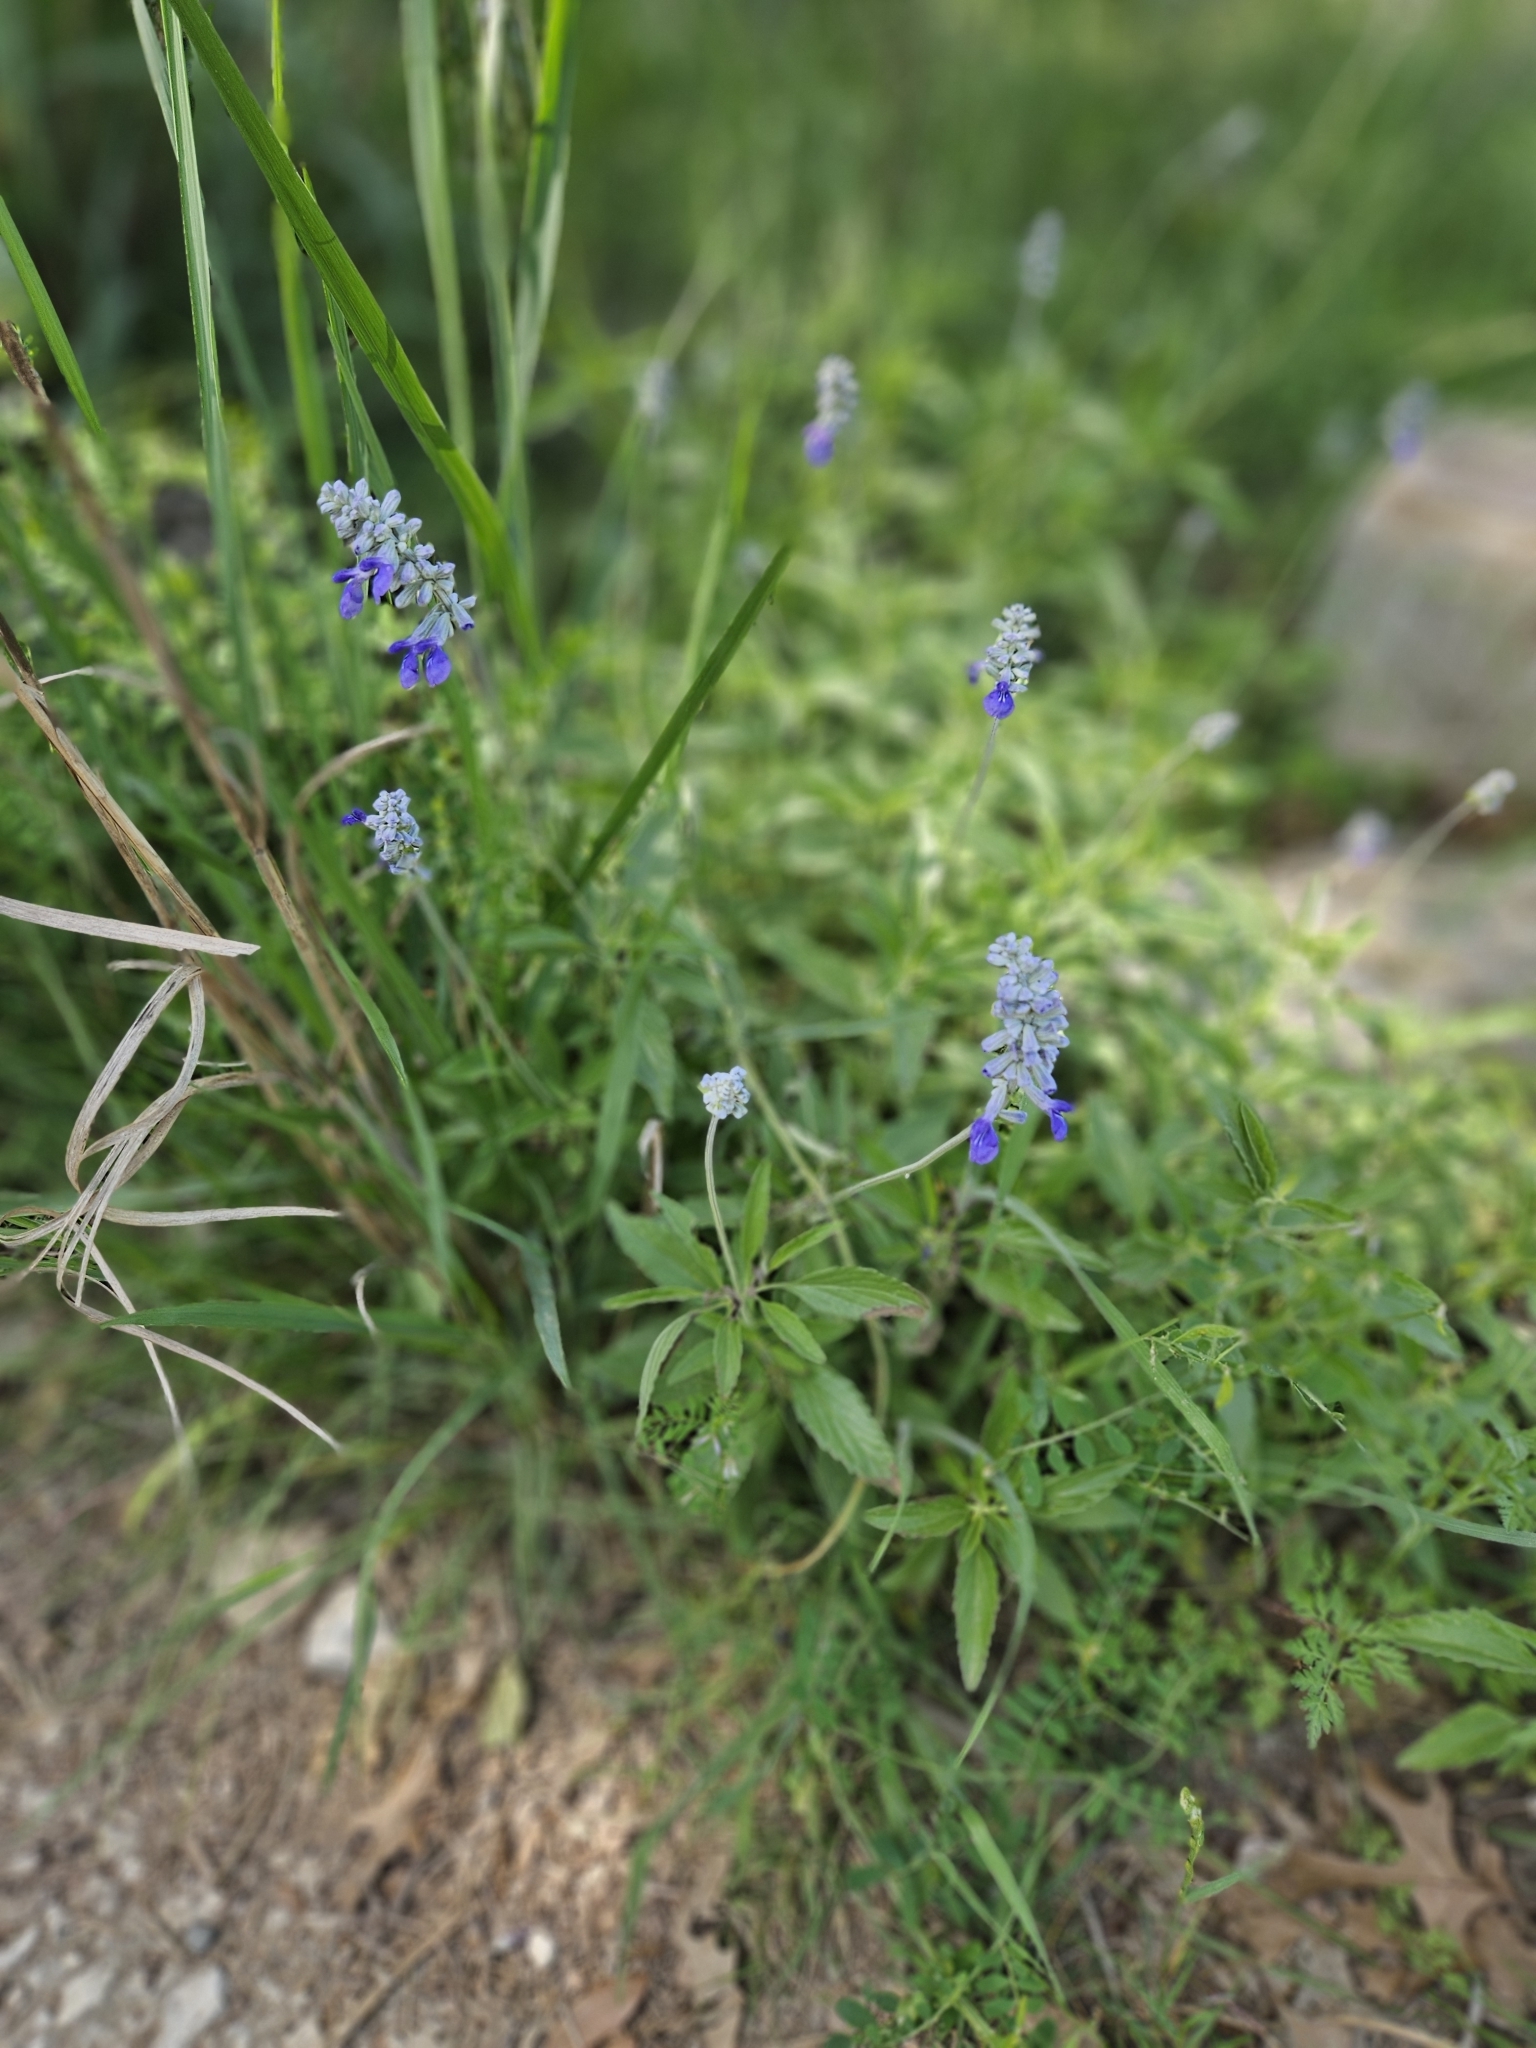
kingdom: Plantae
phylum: Tracheophyta
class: Magnoliopsida
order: Lamiales
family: Lamiaceae
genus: Salvia
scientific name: Salvia farinacea
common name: Mealy sage
